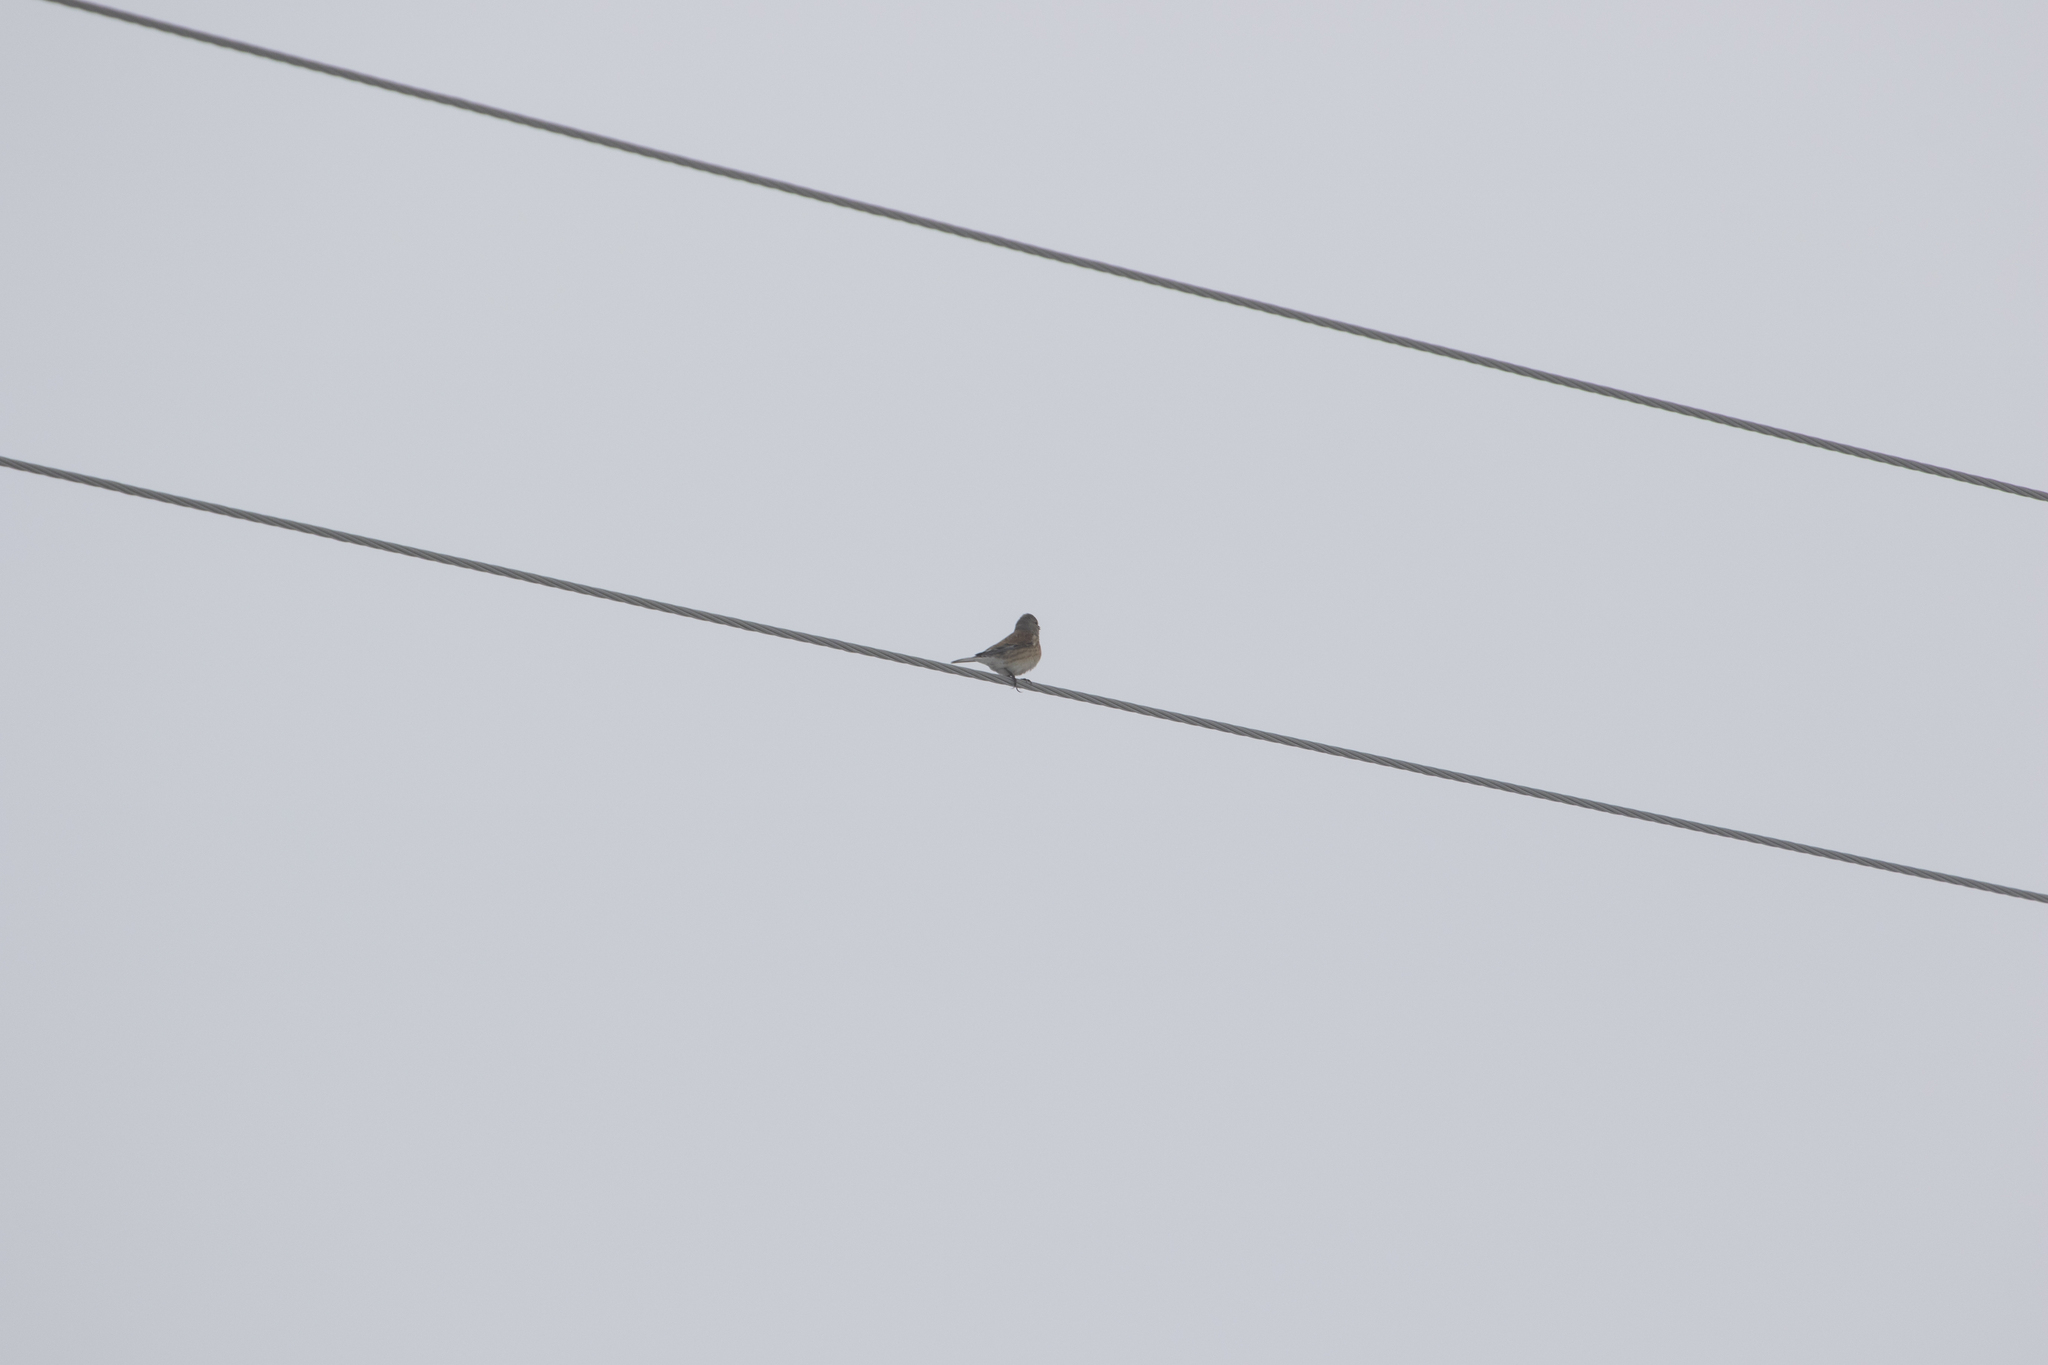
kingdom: Animalia
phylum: Chordata
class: Aves
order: Passeriformes
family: Fringillidae
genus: Linaria
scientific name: Linaria cannabina
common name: Common linnet
